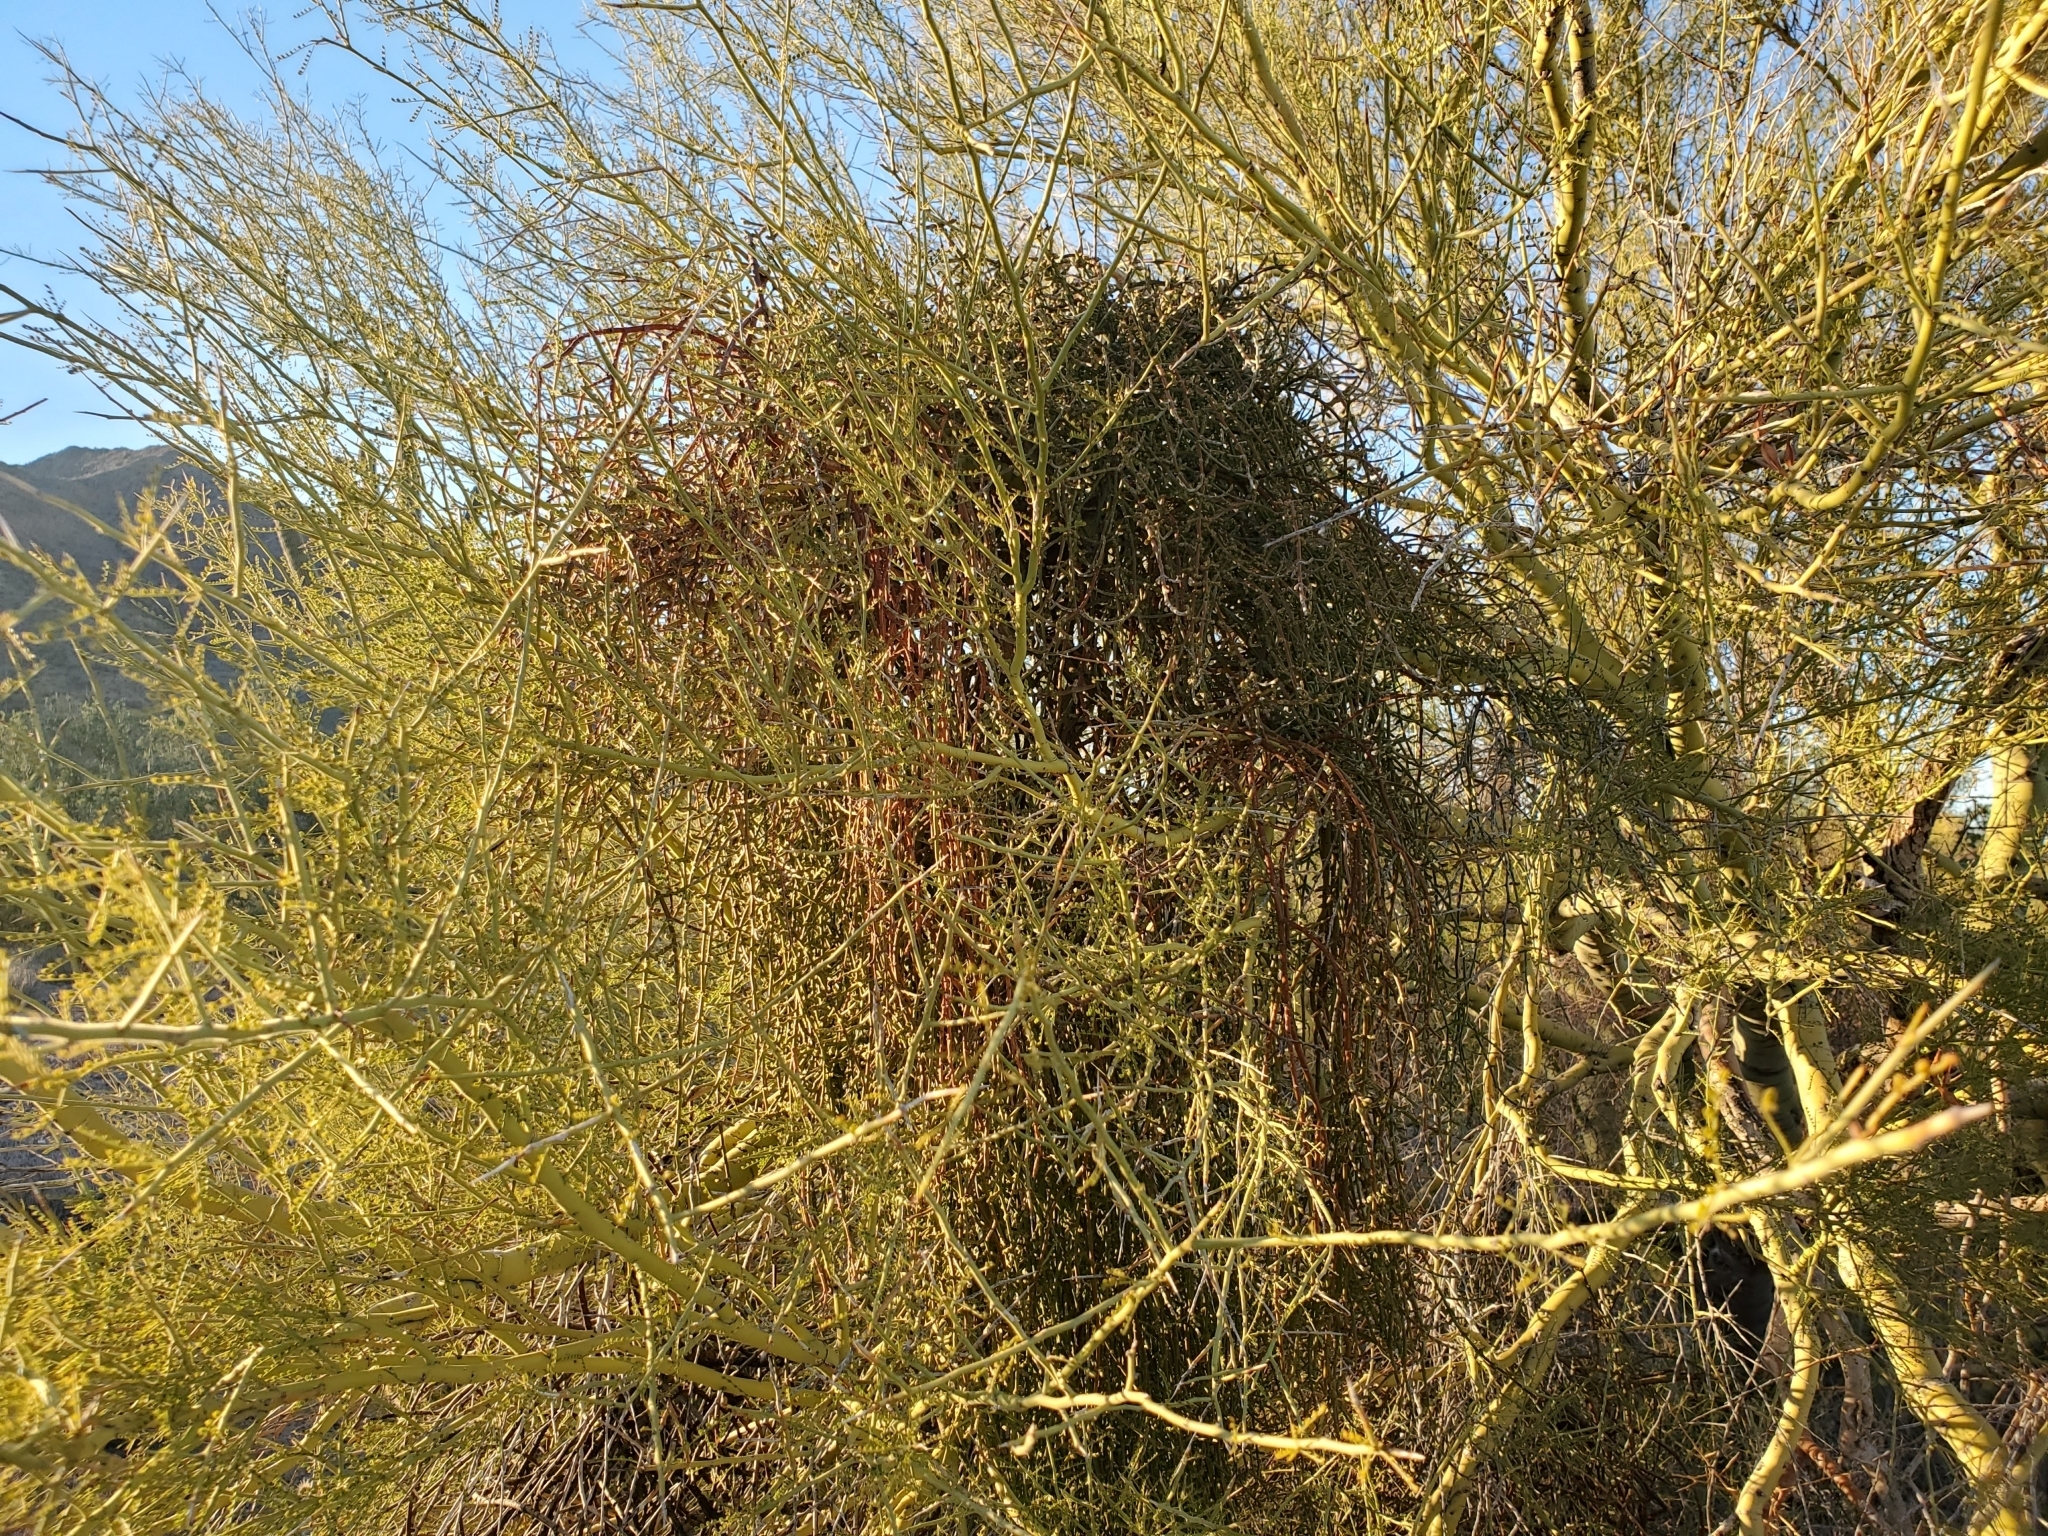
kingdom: Plantae
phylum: Tracheophyta
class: Magnoliopsida
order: Santalales
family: Viscaceae
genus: Phoradendron
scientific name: Phoradendron californicum
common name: Acacia mistletoe
